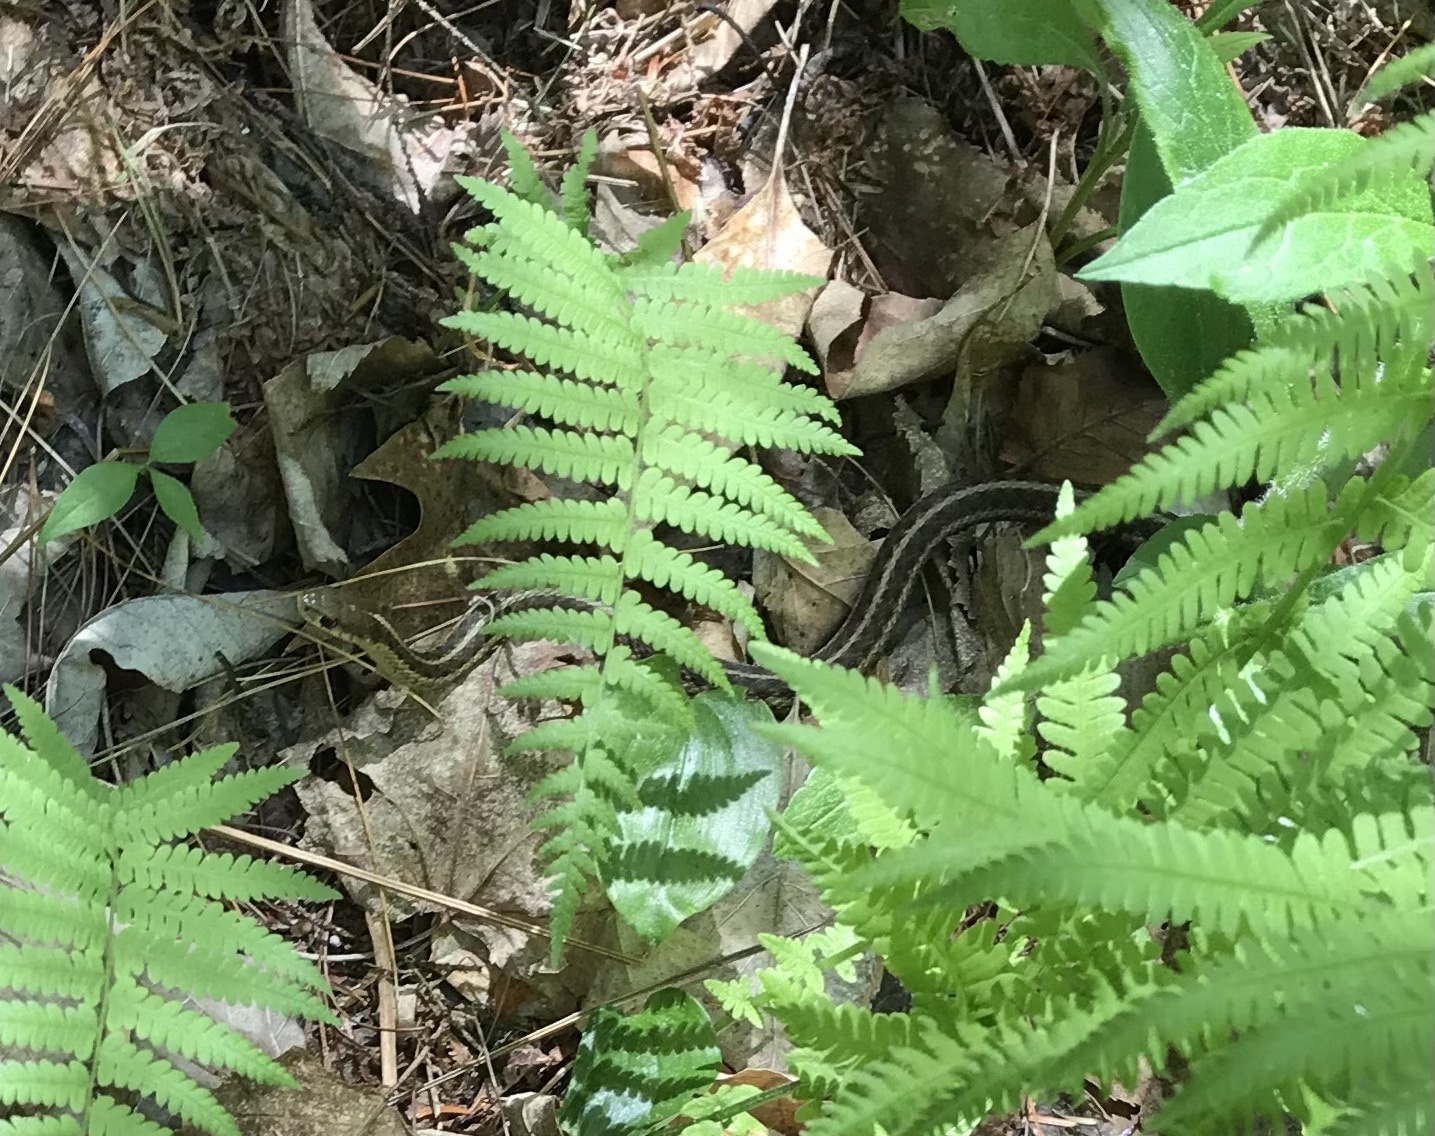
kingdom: Animalia
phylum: Chordata
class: Squamata
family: Colubridae
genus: Thamnophis
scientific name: Thamnophis sirtalis
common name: Common garter snake
